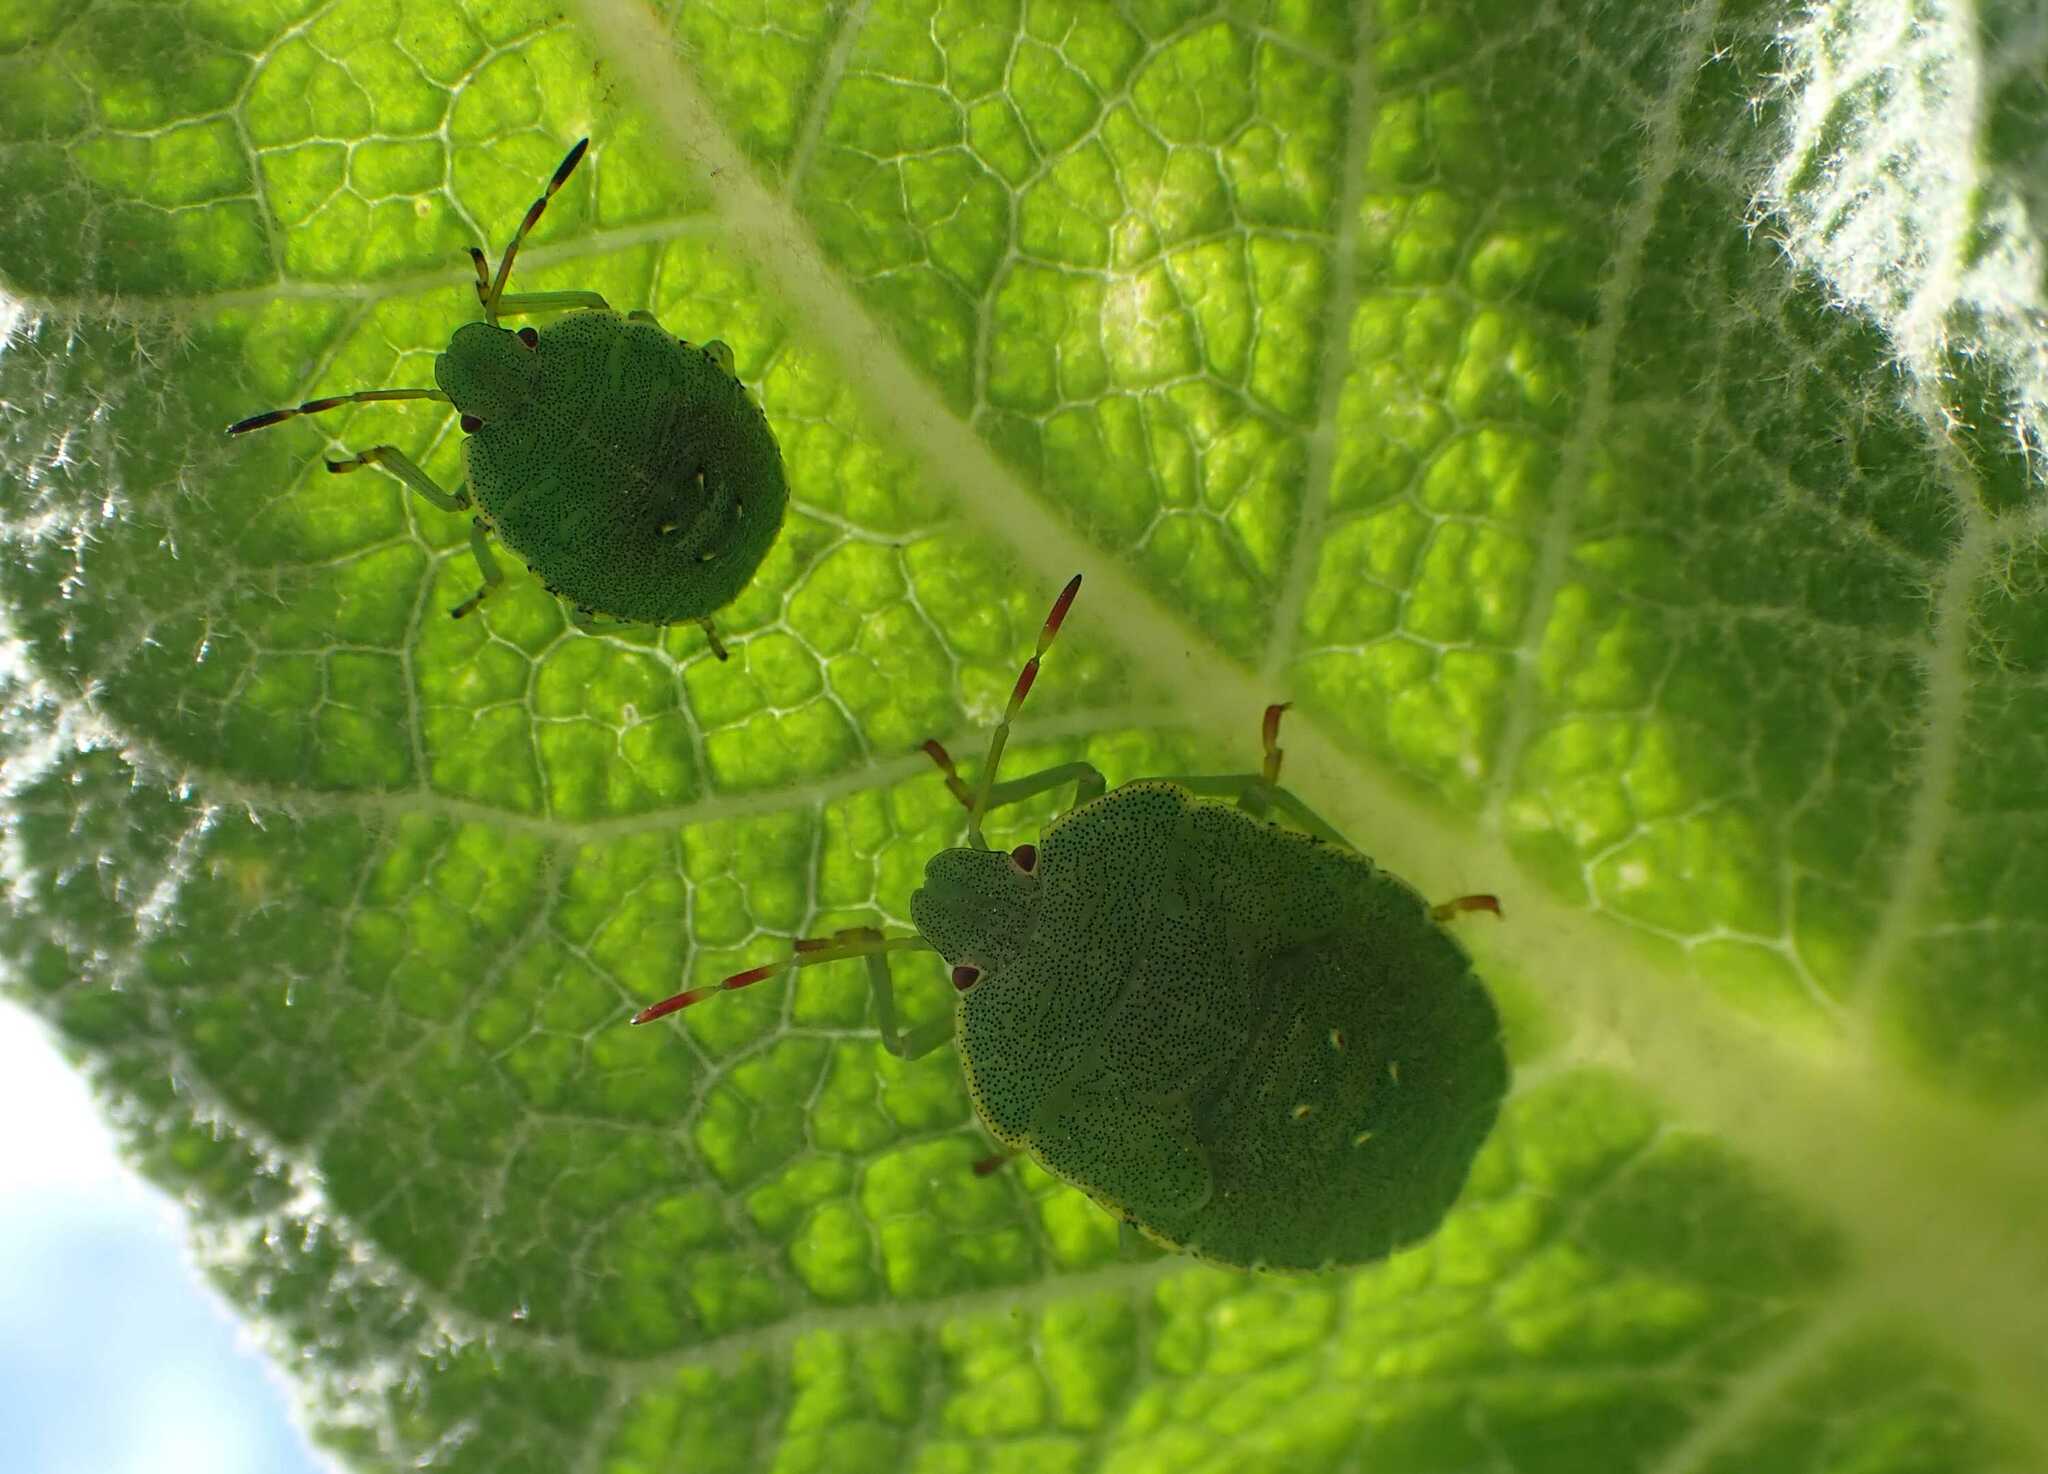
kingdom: Animalia
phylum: Arthropoda
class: Insecta
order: Hemiptera
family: Pentatomidae
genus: Palomena
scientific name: Palomena prasina
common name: Green shieldbug
